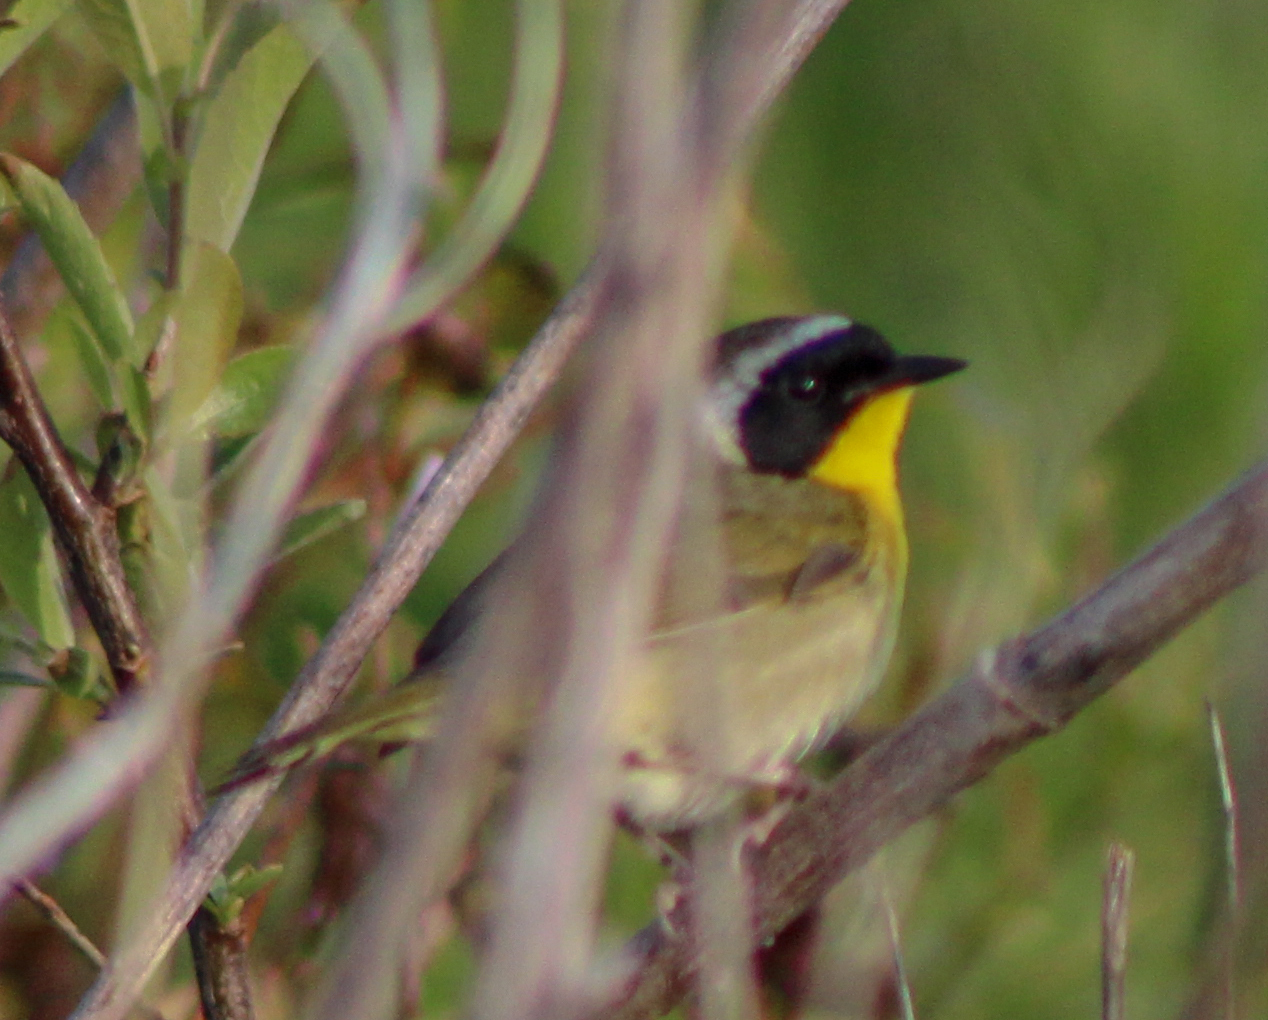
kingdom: Animalia
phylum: Chordata
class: Aves
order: Passeriformes
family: Parulidae
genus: Geothlypis
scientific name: Geothlypis trichas
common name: Common yellowthroat
